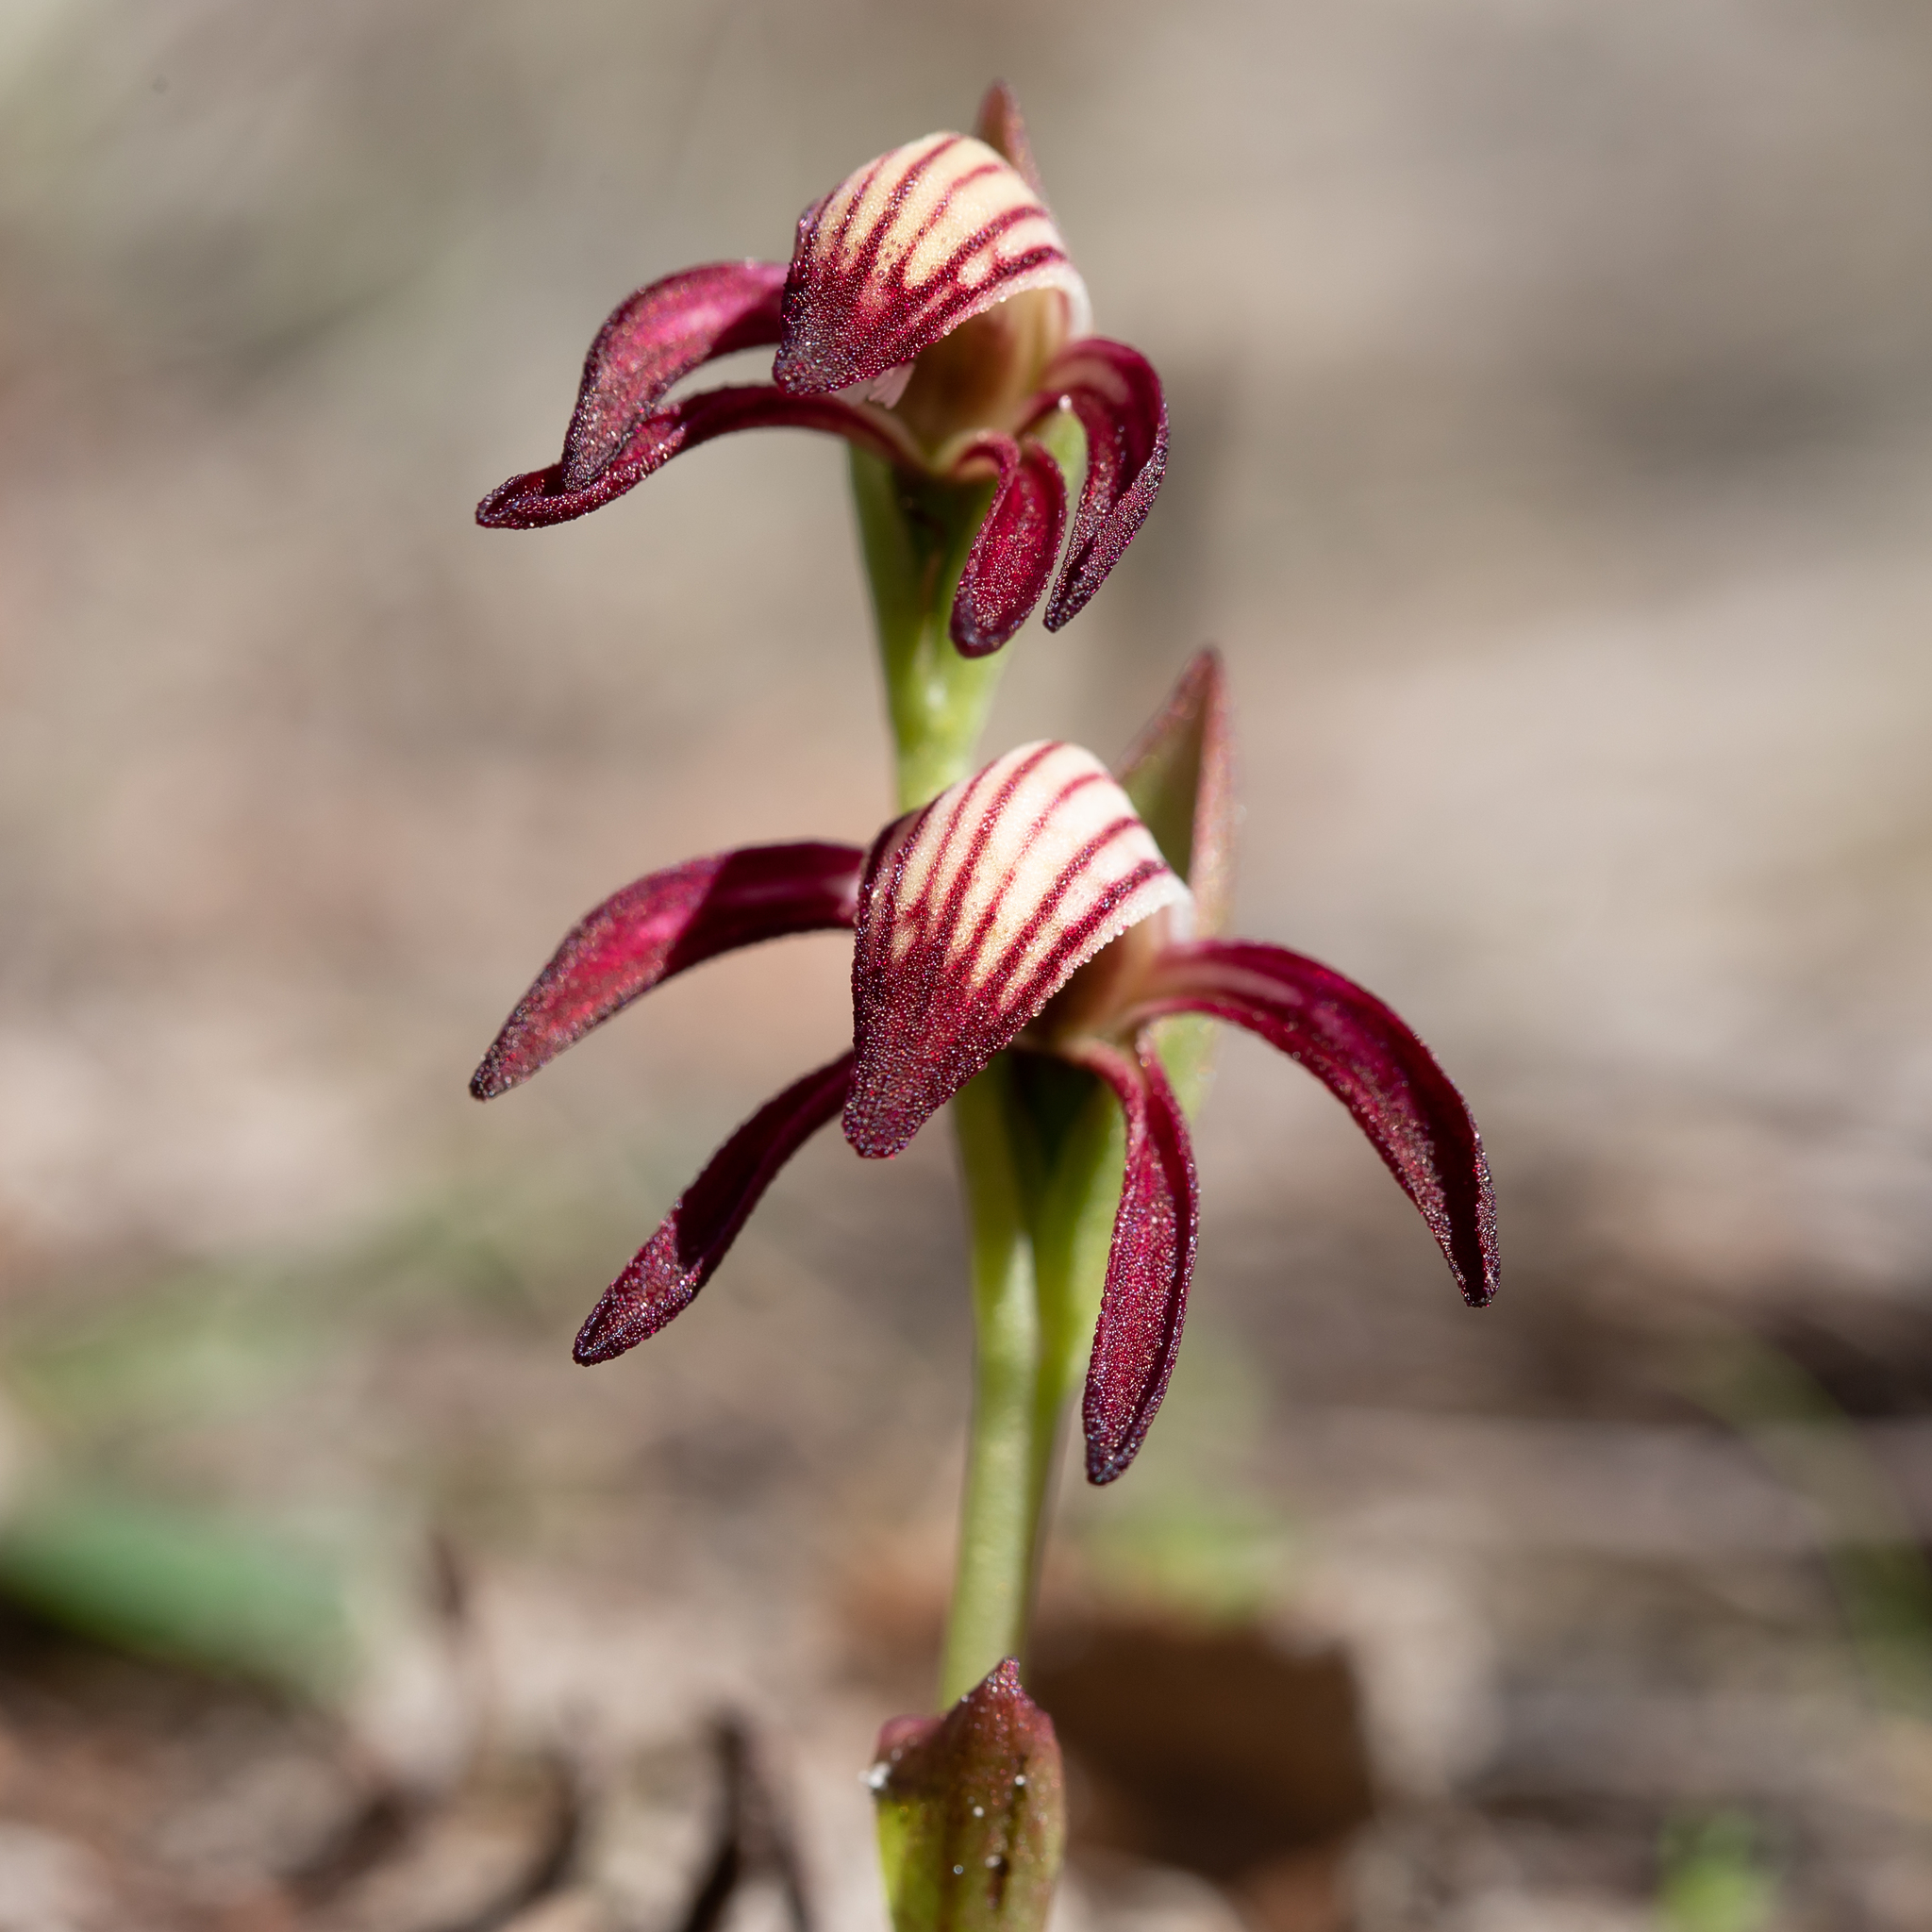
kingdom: Plantae
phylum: Tracheophyta
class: Liliopsida
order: Asparagales
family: Orchidaceae
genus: Pyrorchis
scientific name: Pyrorchis nigricans
